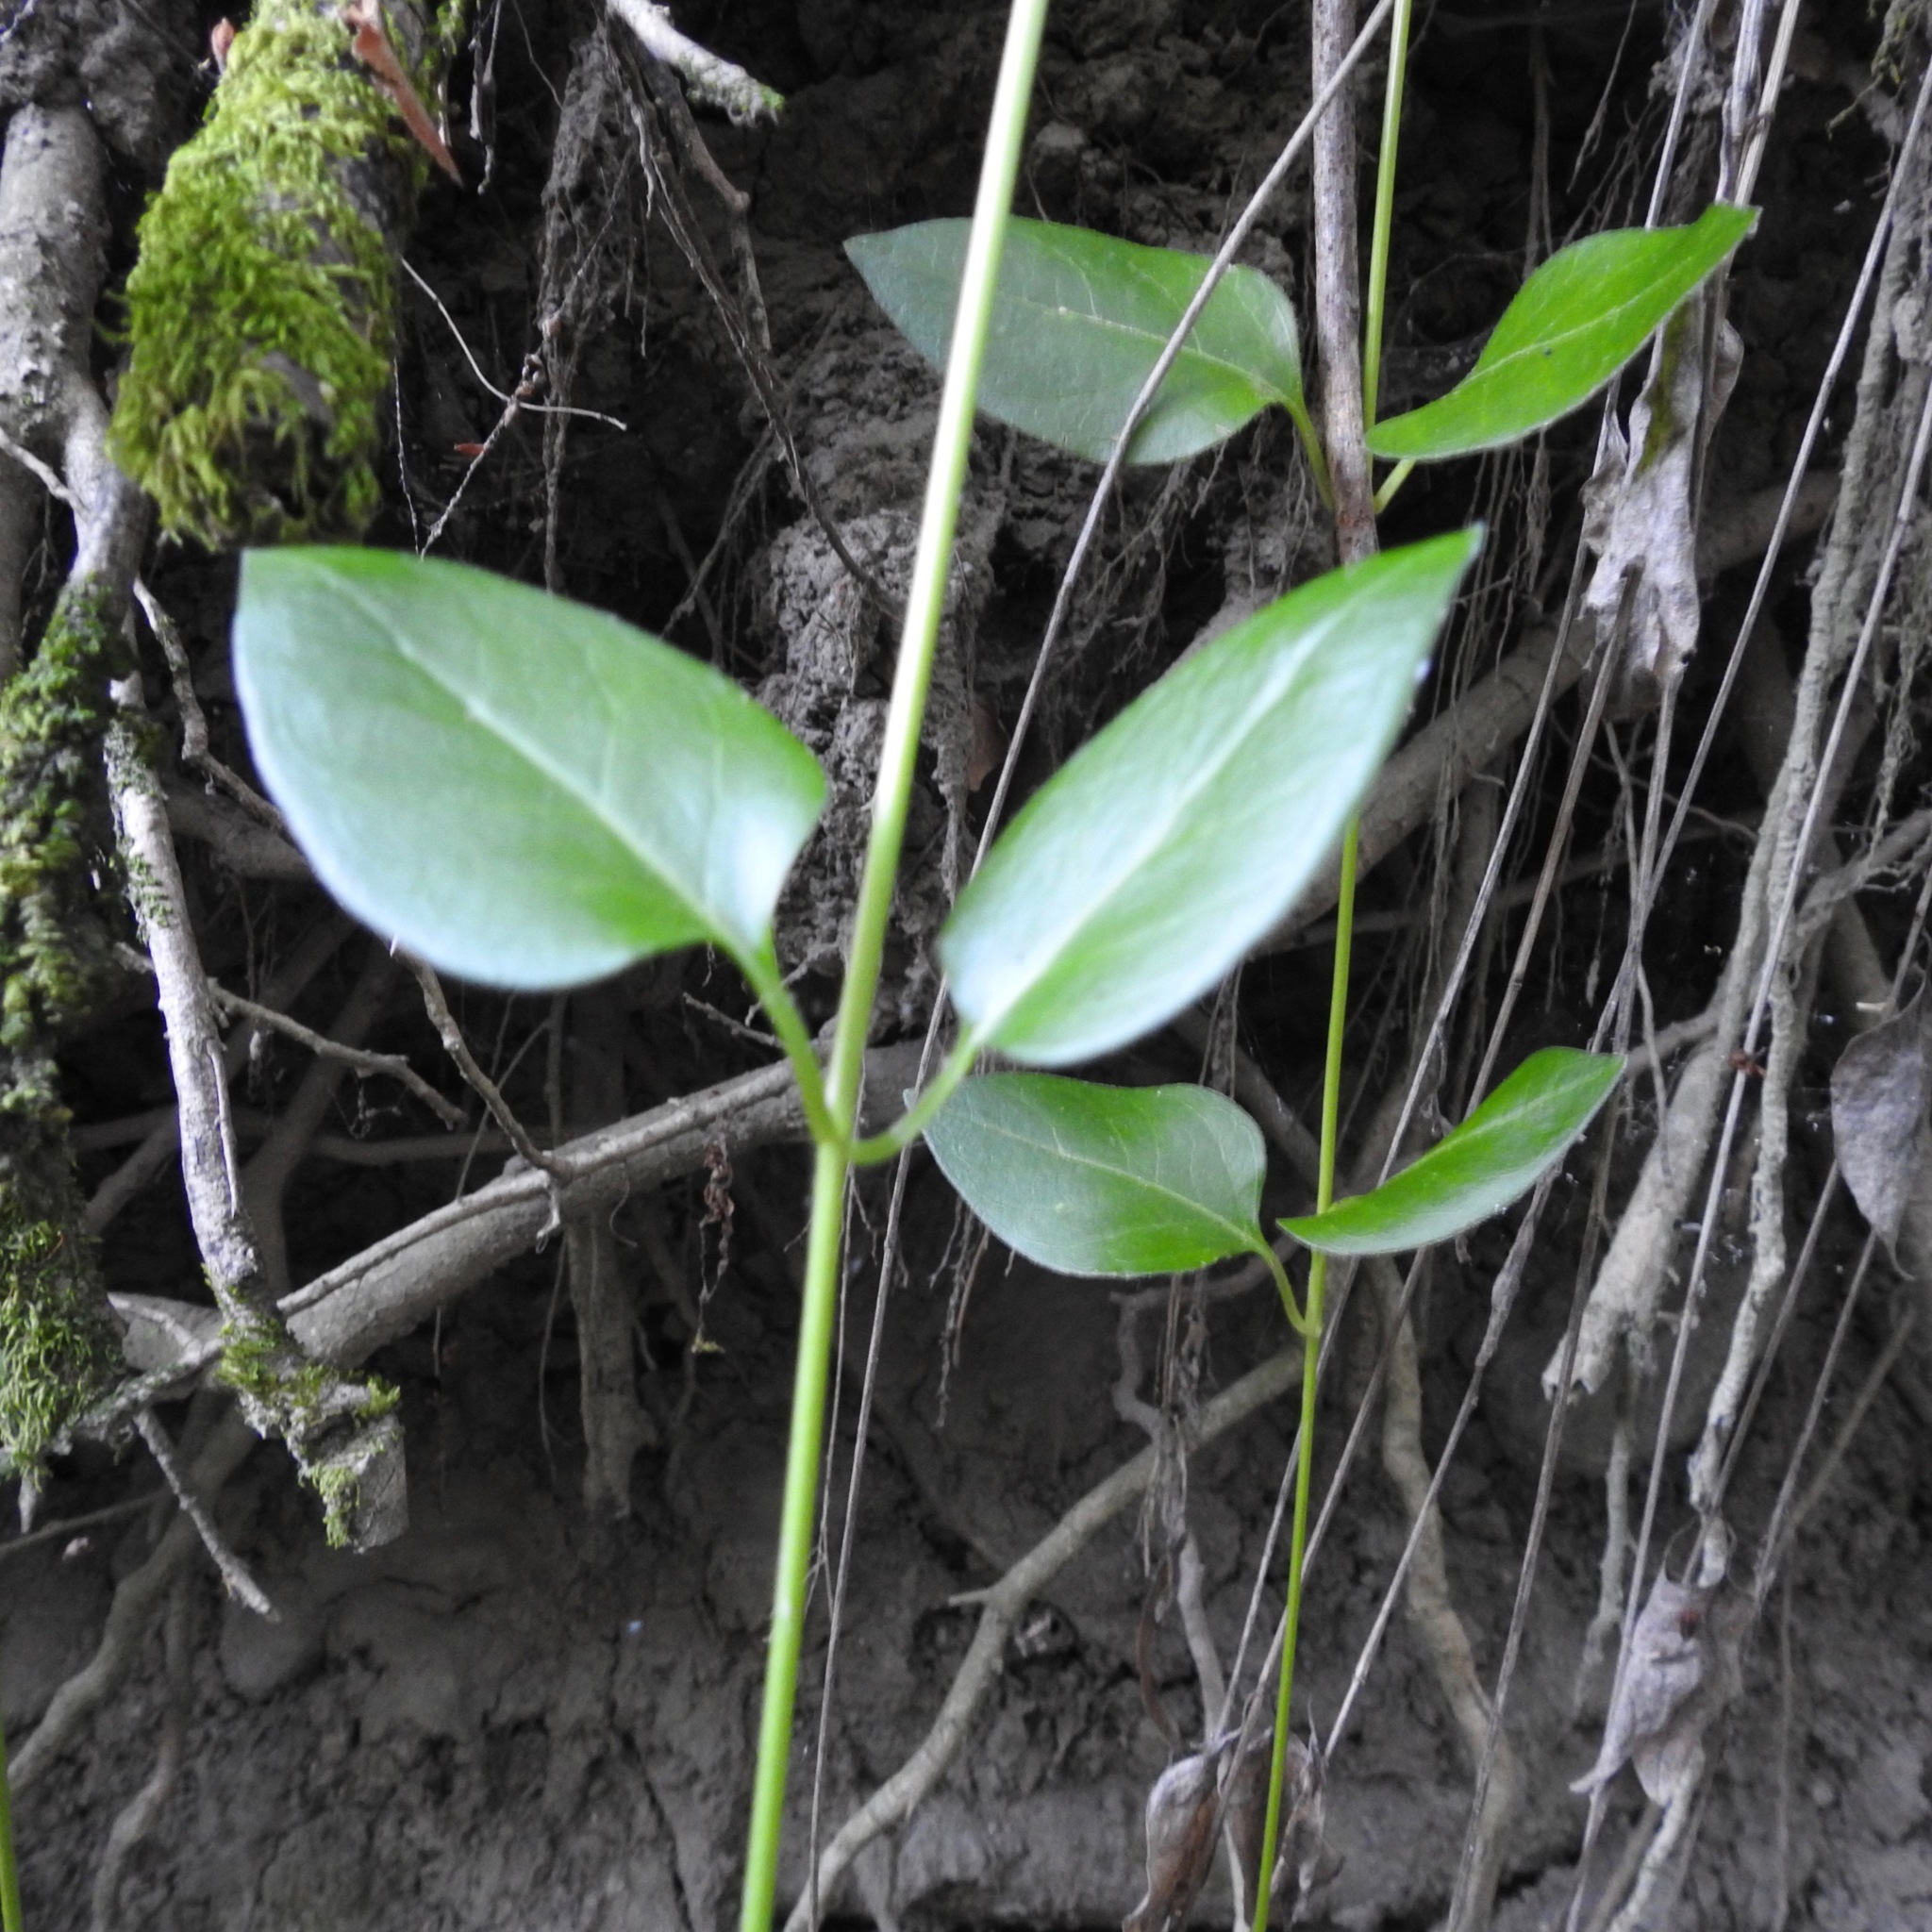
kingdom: Plantae
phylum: Tracheophyta
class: Magnoliopsida
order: Gentianales
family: Apocynaceae
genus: Vinca
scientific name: Vinca major
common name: Greater periwinkle
